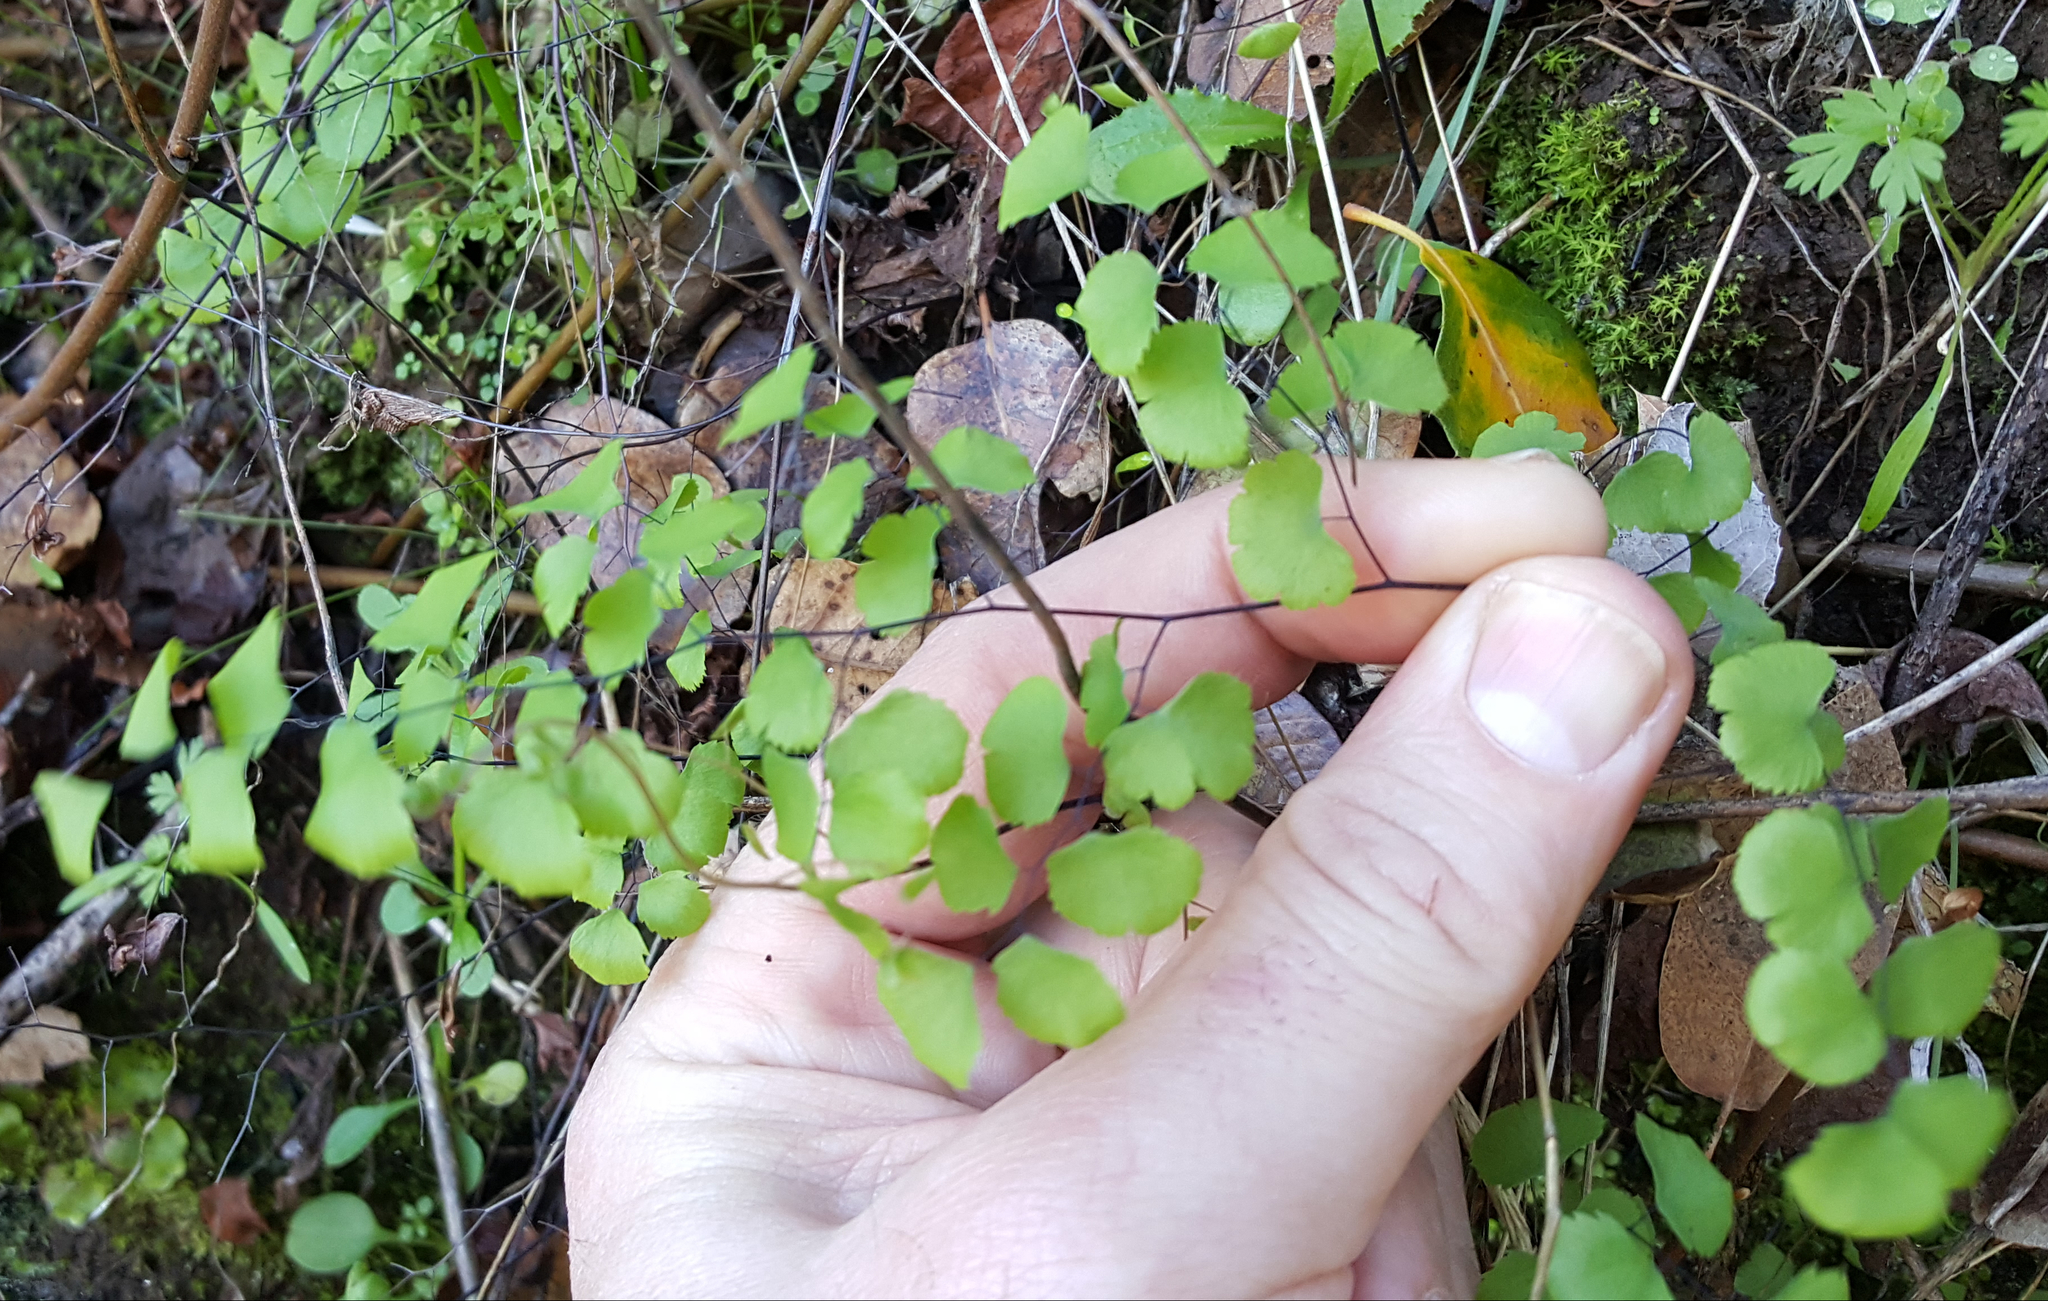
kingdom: Plantae
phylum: Tracheophyta
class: Polypodiopsida
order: Polypodiales
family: Pteridaceae
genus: Adiantum
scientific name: Adiantum jordanii
